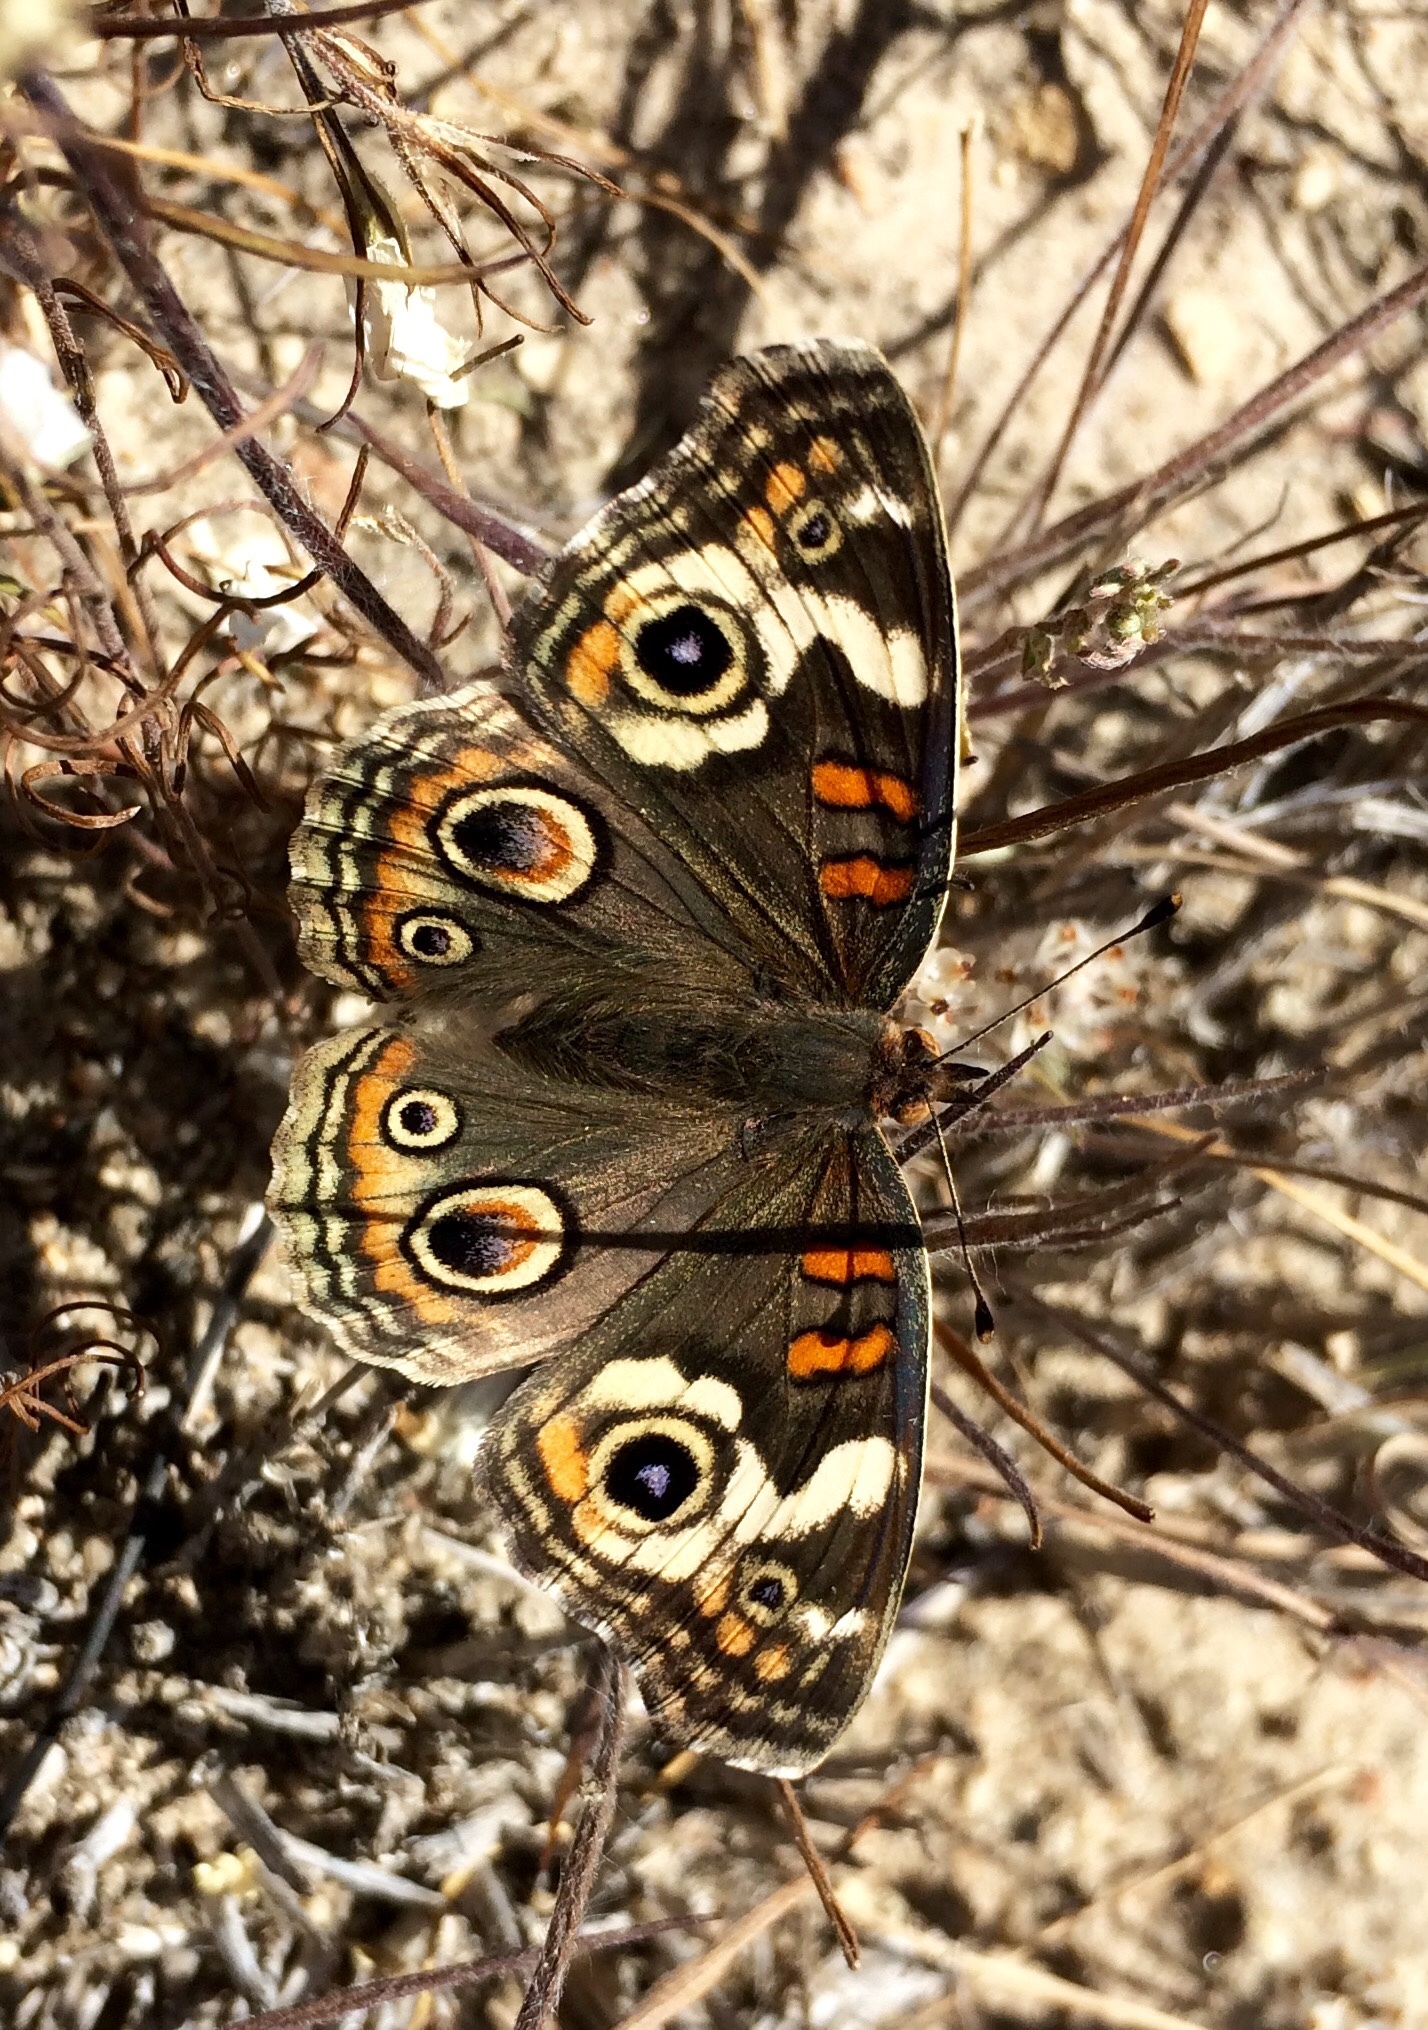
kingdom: Animalia
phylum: Arthropoda
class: Insecta
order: Lepidoptera
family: Nymphalidae
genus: Junonia
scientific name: Junonia grisea
